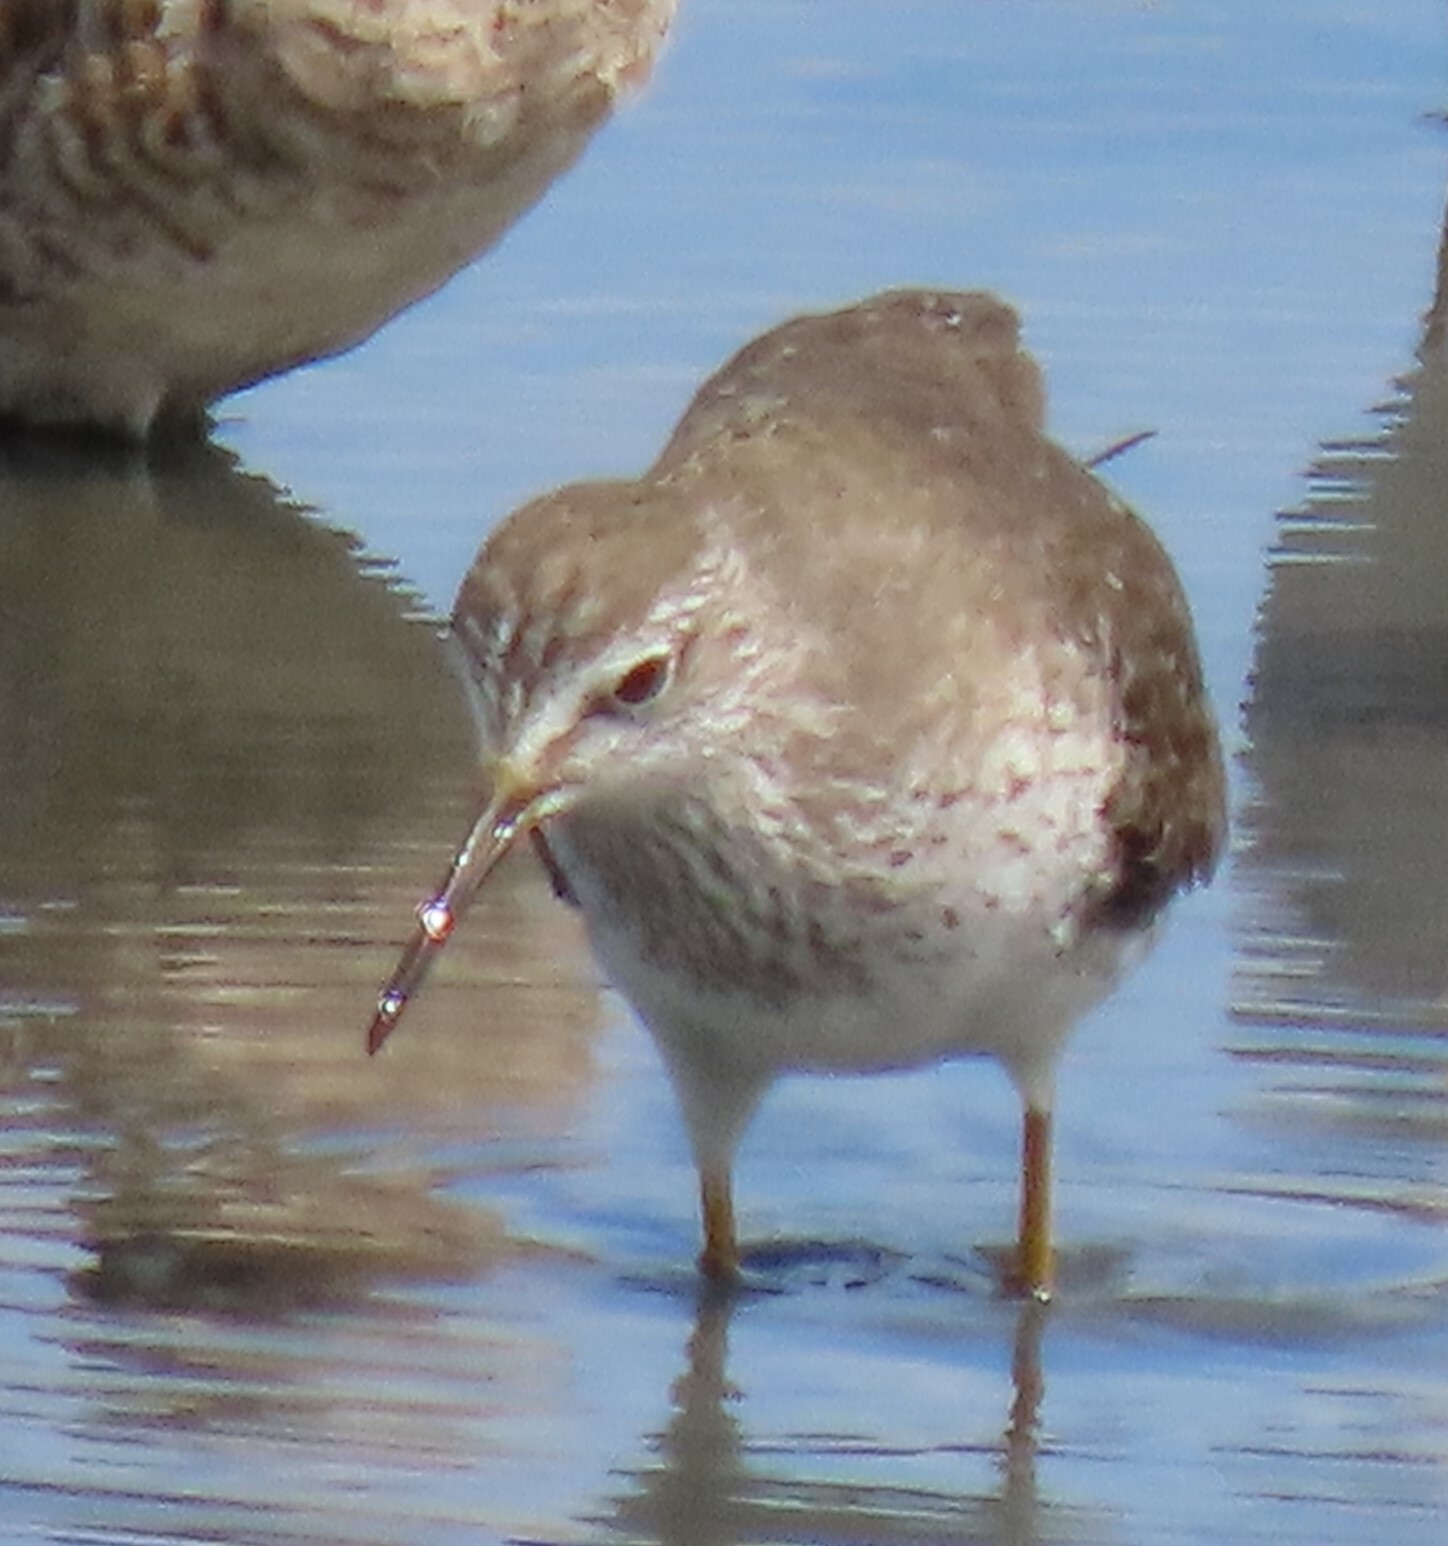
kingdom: Animalia
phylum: Chordata
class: Aves
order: Charadriiformes
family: Scolopacidae
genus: Tringa
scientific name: Tringa flavipes
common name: Lesser yellowlegs
